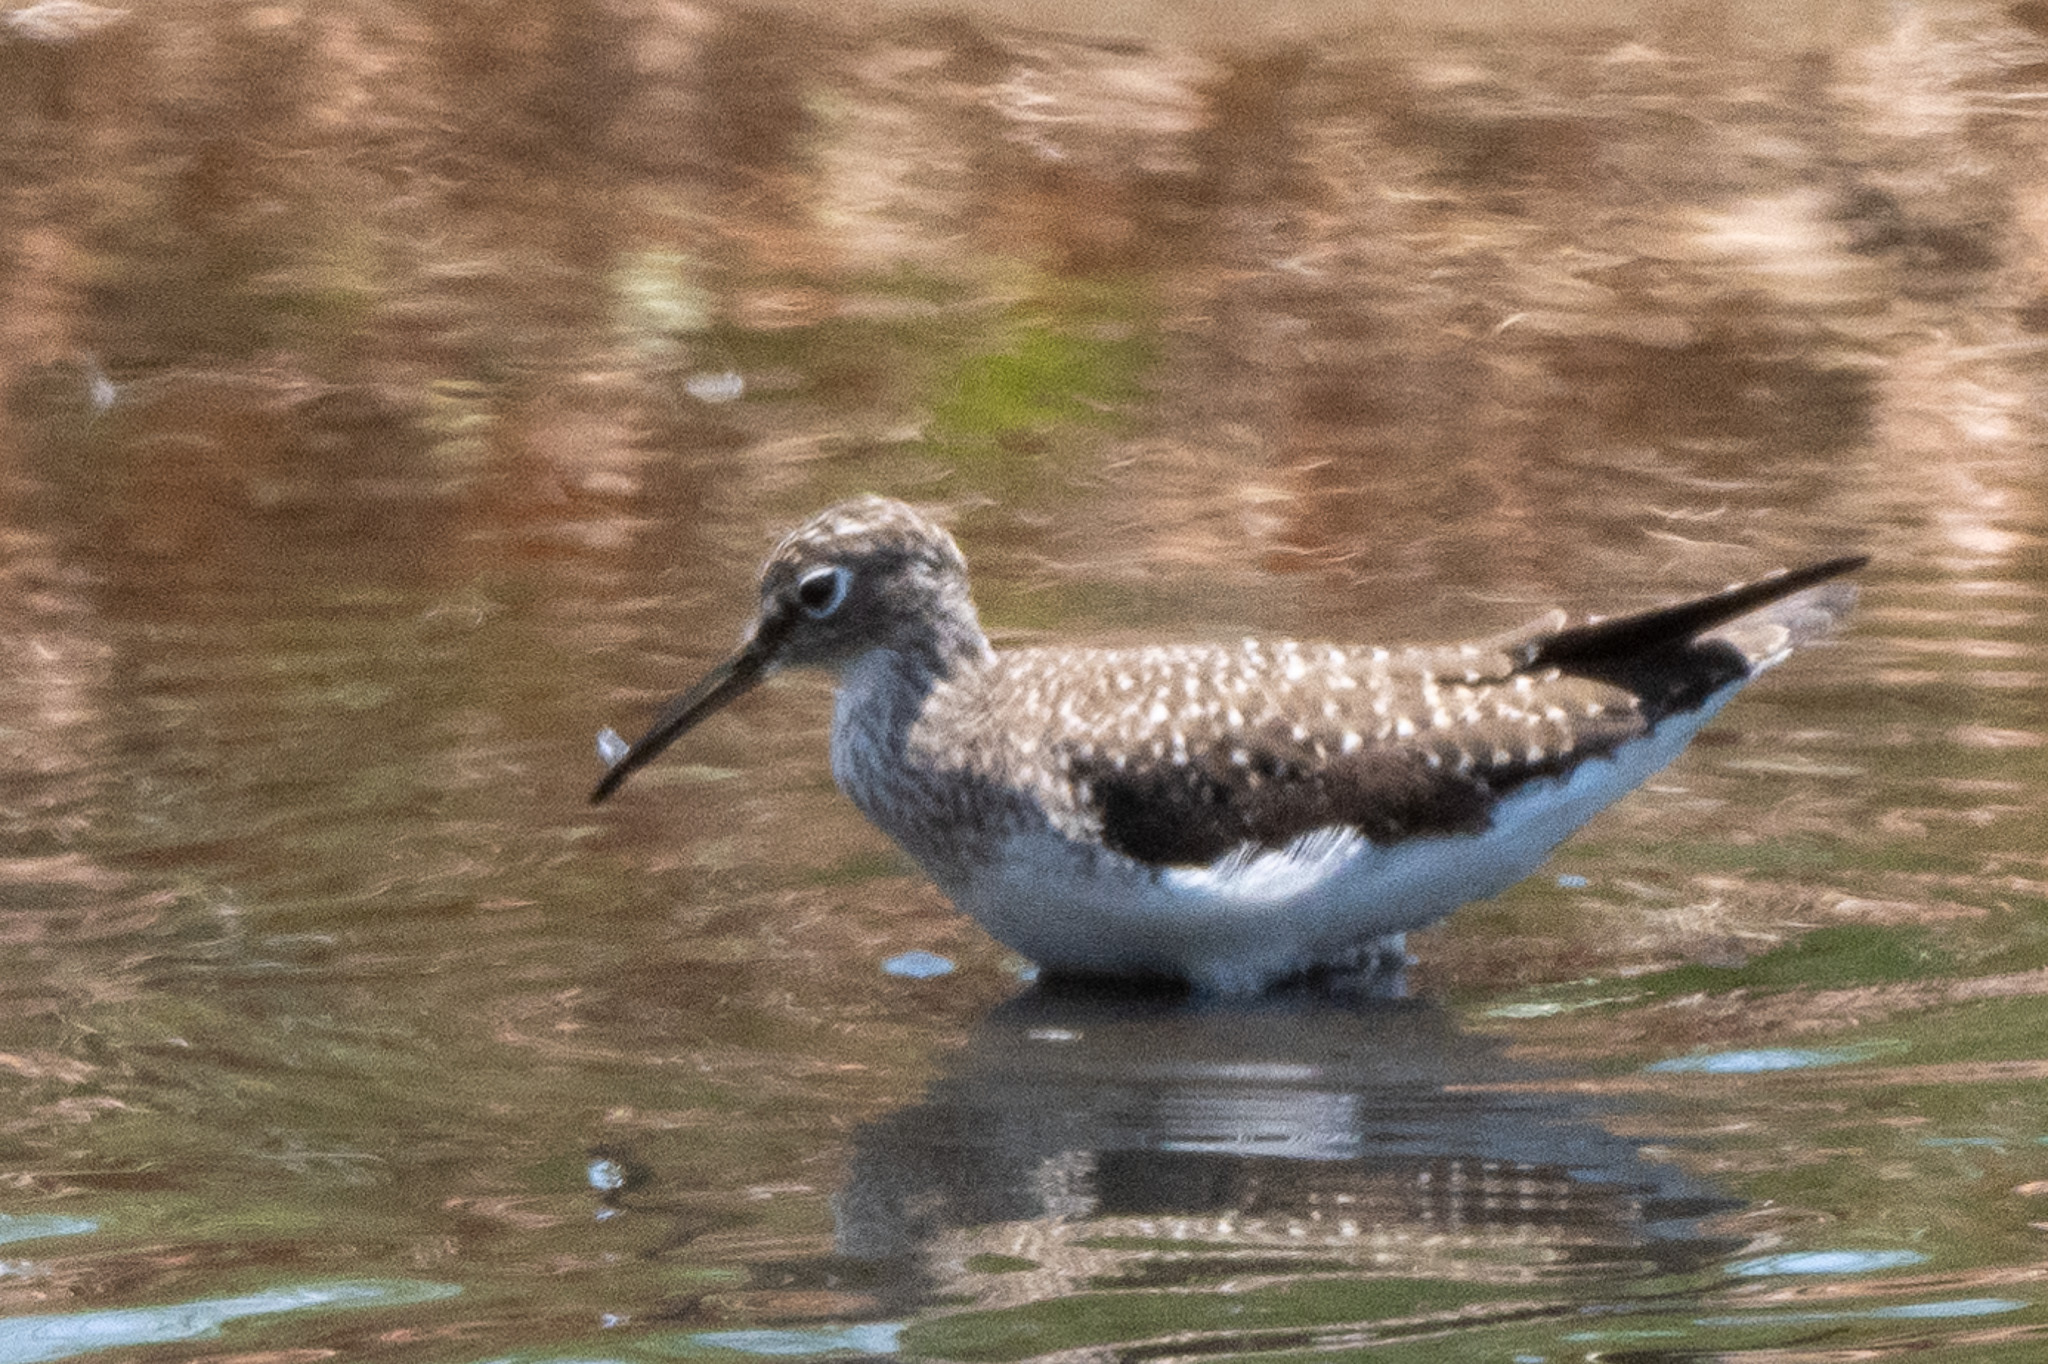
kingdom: Animalia
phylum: Chordata
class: Aves
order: Charadriiformes
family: Scolopacidae
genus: Tringa
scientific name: Tringa solitaria
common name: Solitary sandpiper
